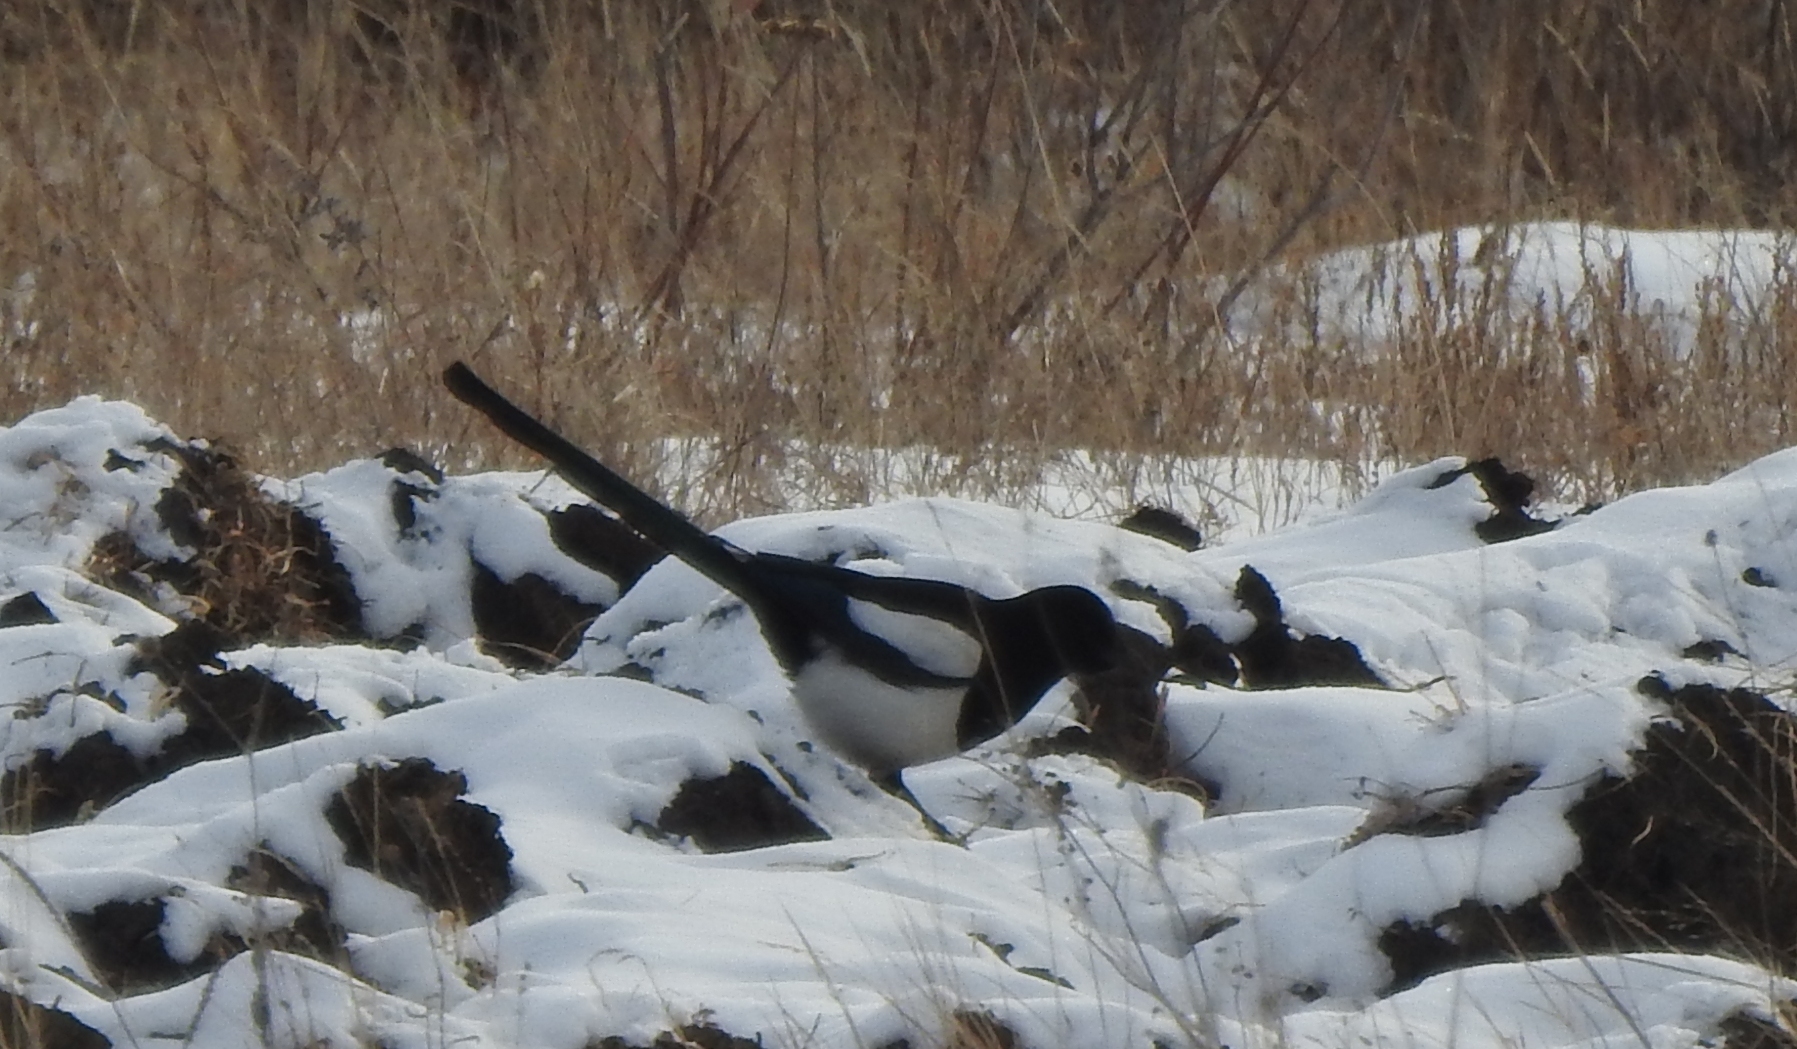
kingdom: Animalia
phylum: Chordata
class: Aves
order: Passeriformes
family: Corvidae
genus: Pica
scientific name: Pica pica
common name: Eurasian magpie
